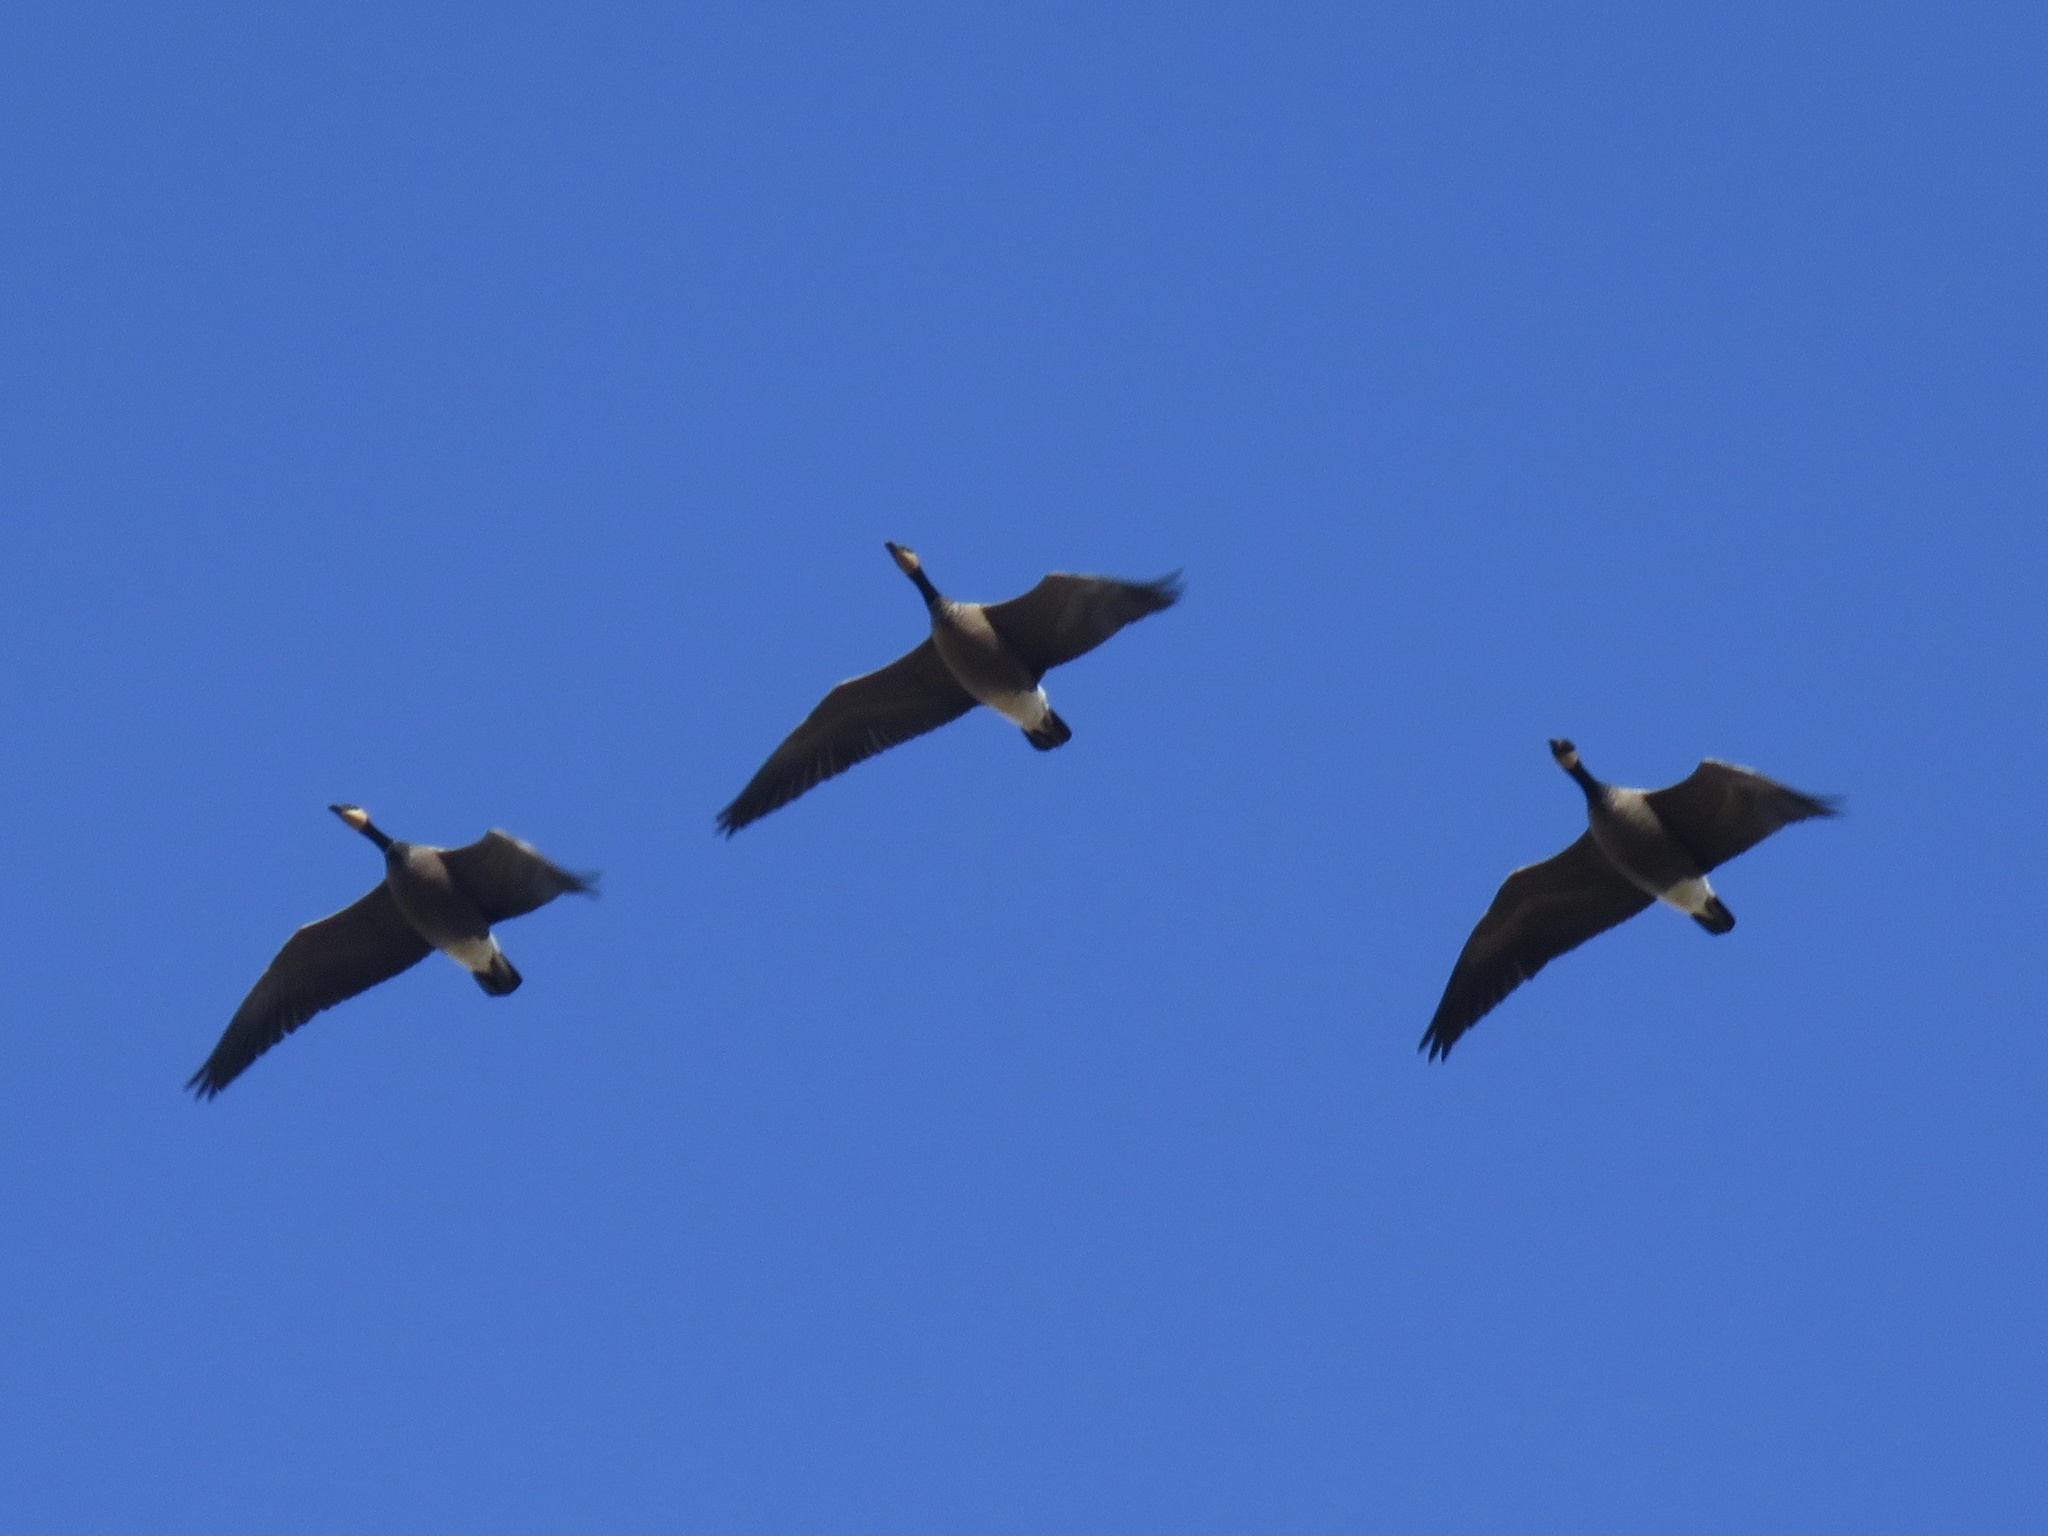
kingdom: Animalia
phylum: Chordata
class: Aves
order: Anseriformes
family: Anatidae
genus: Branta
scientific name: Branta canadensis
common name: Canada goose
